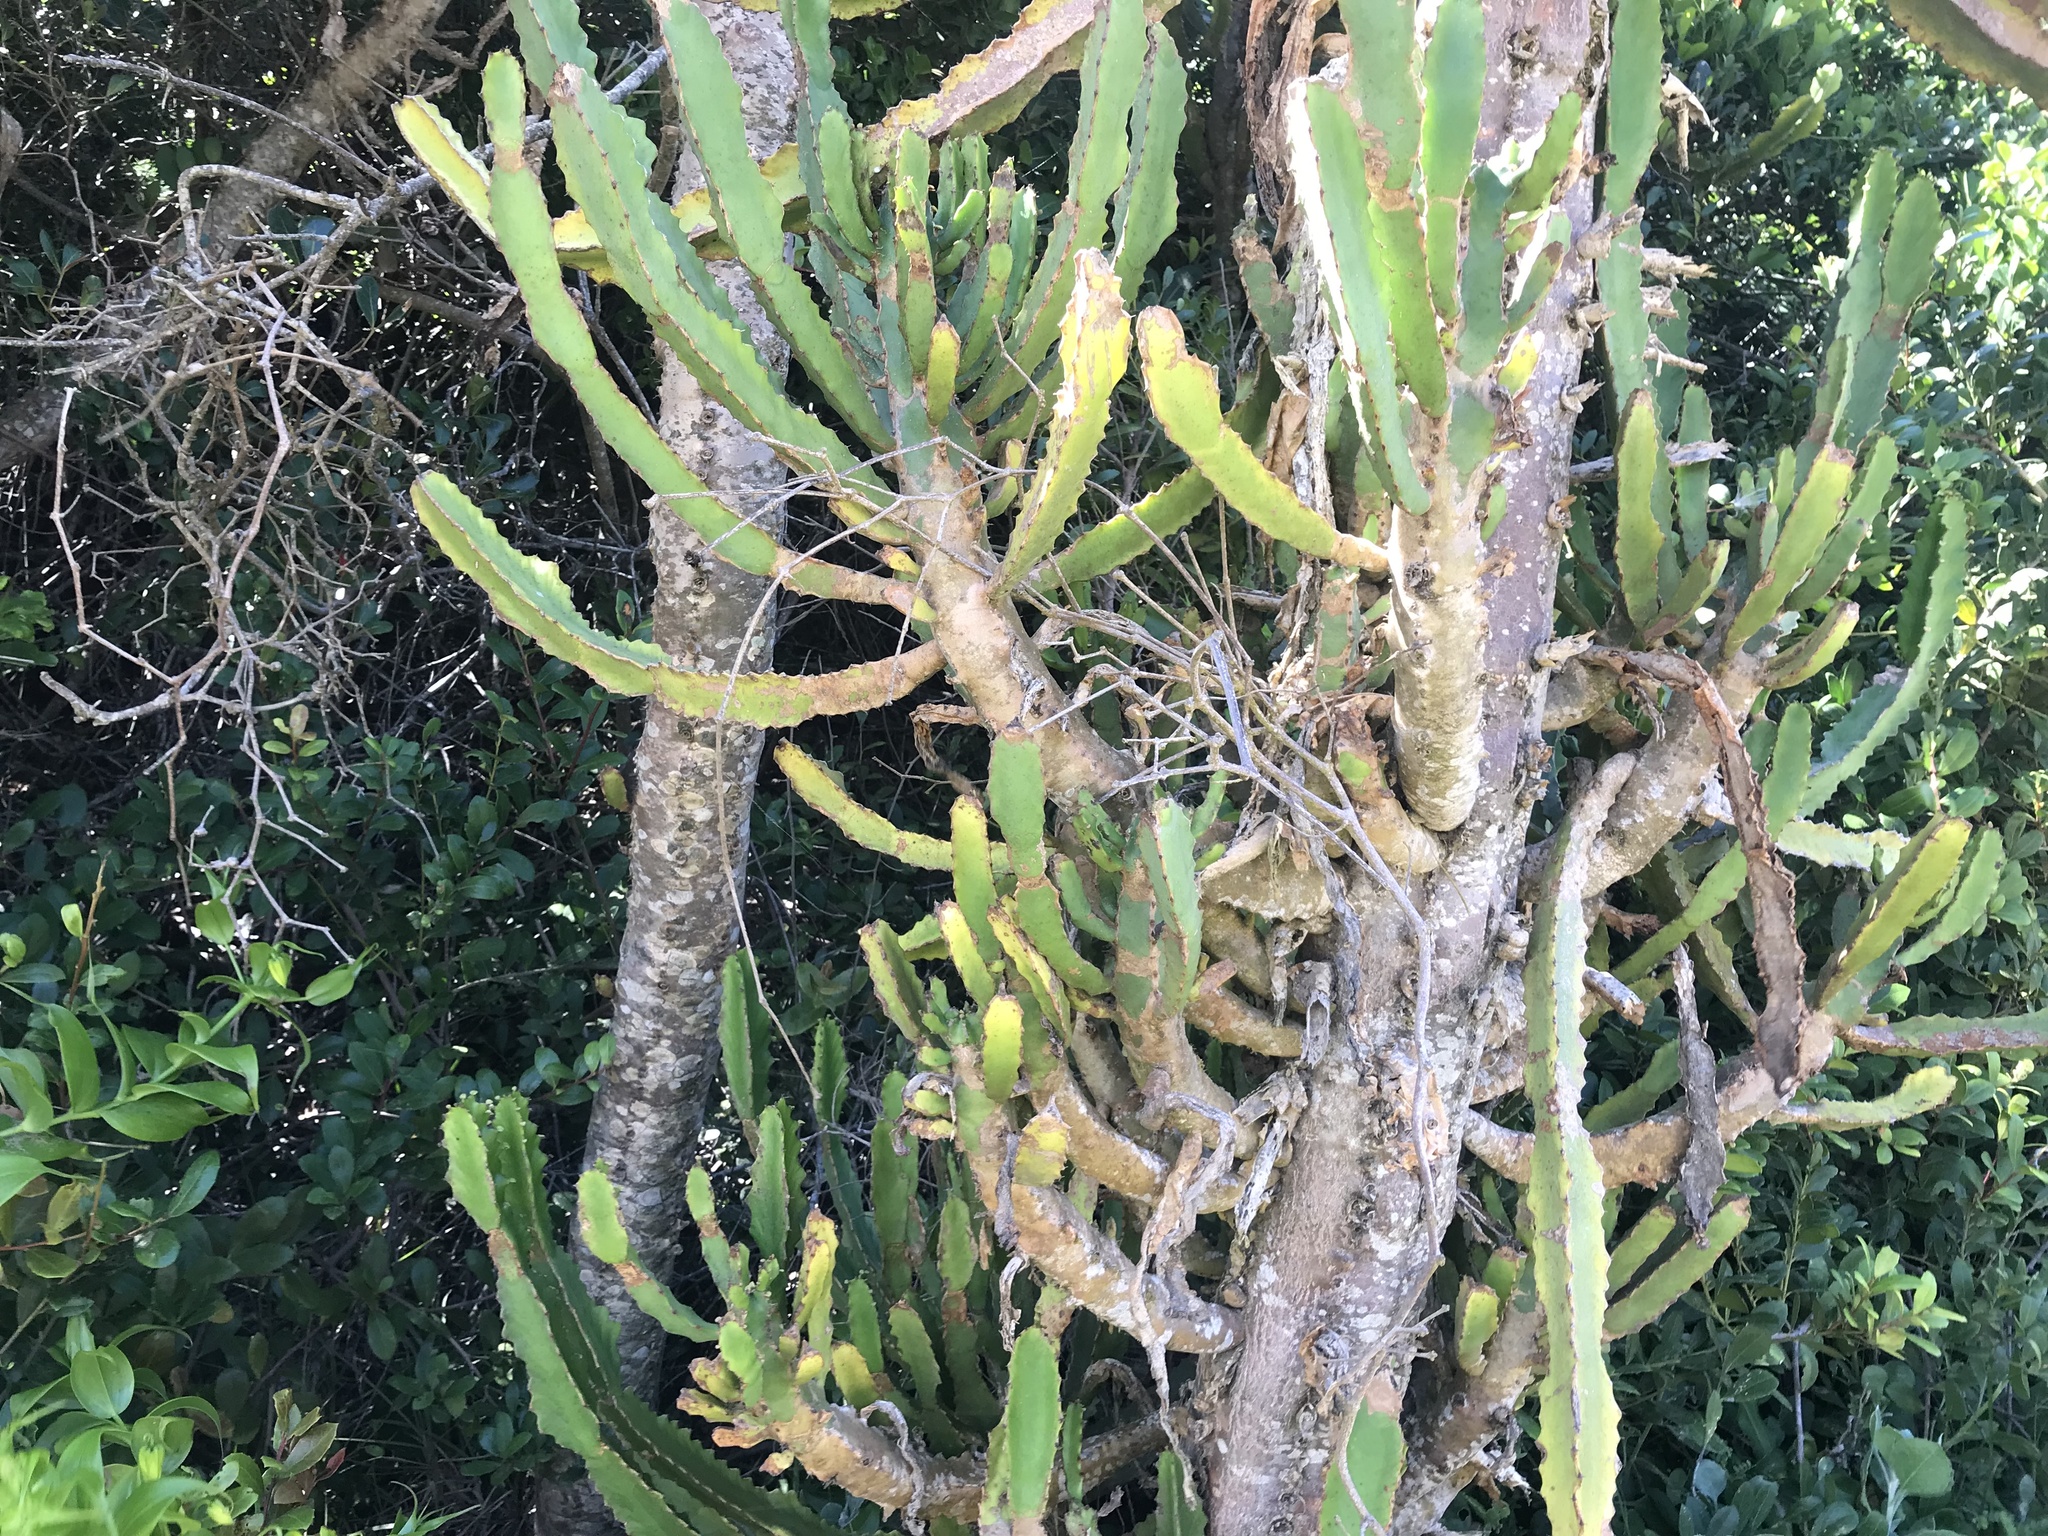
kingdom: Plantae
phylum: Tracheophyta
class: Magnoliopsida
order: Malpighiales
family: Euphorbiaceae
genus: Euphorbia
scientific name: Euphorbia triangularis
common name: Chandelier tree
